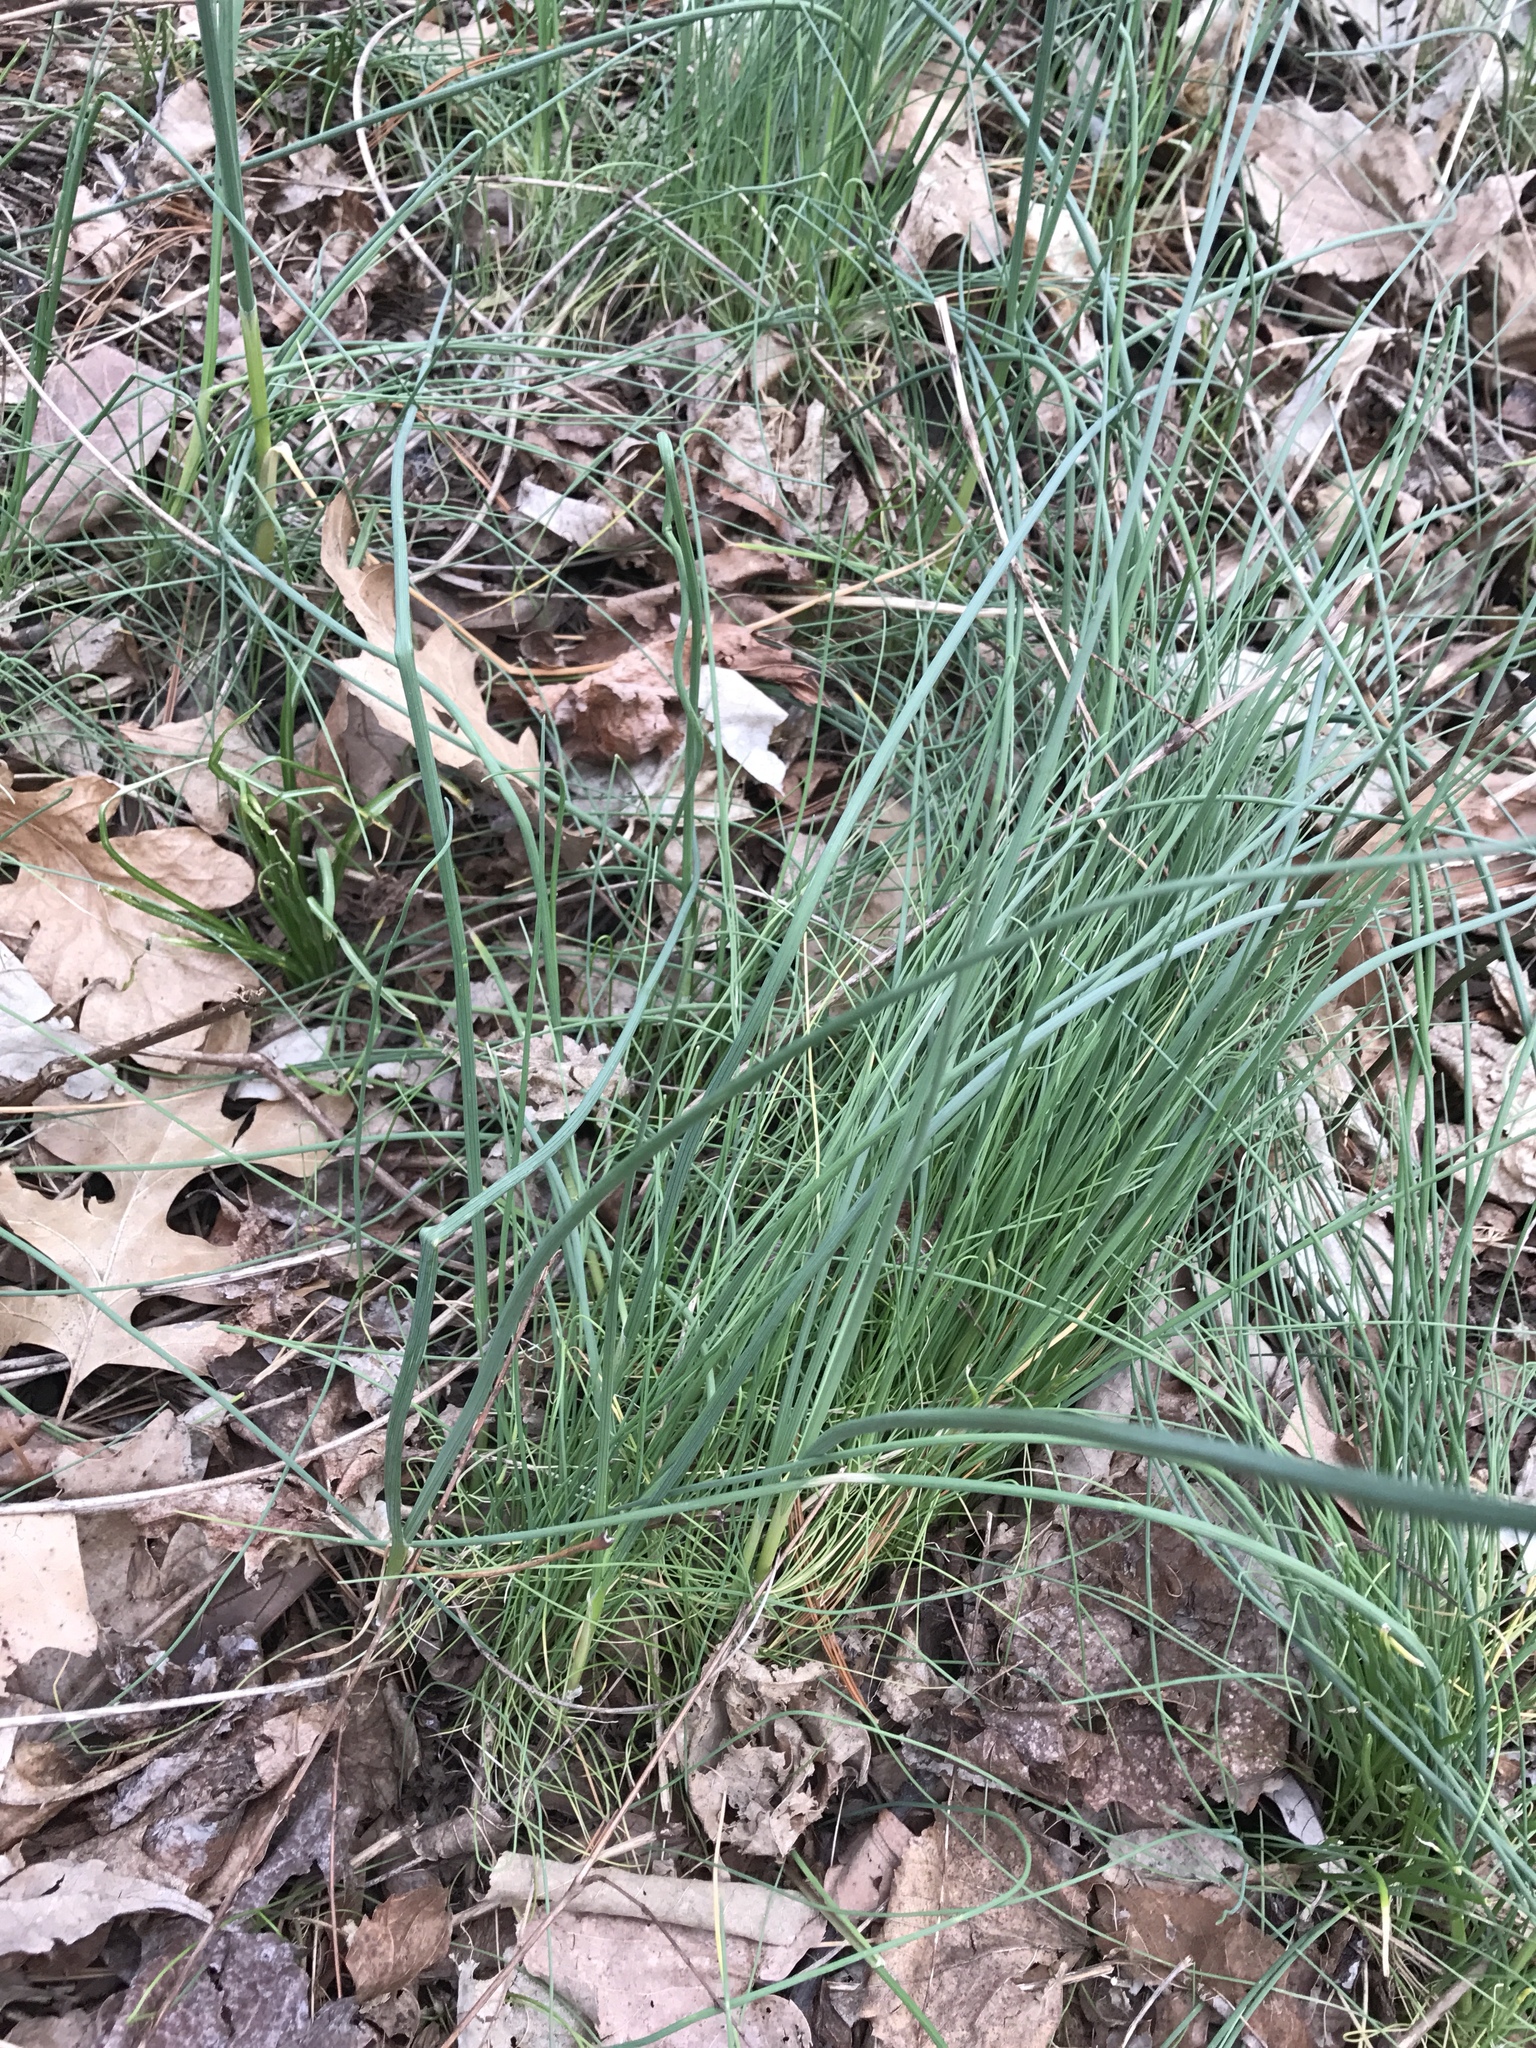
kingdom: Plantae
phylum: Tracheophyta
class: Liliopsida
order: Asparagales
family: Amaryllidaceae
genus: Allium
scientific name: Allium vineale
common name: Crow garlic
